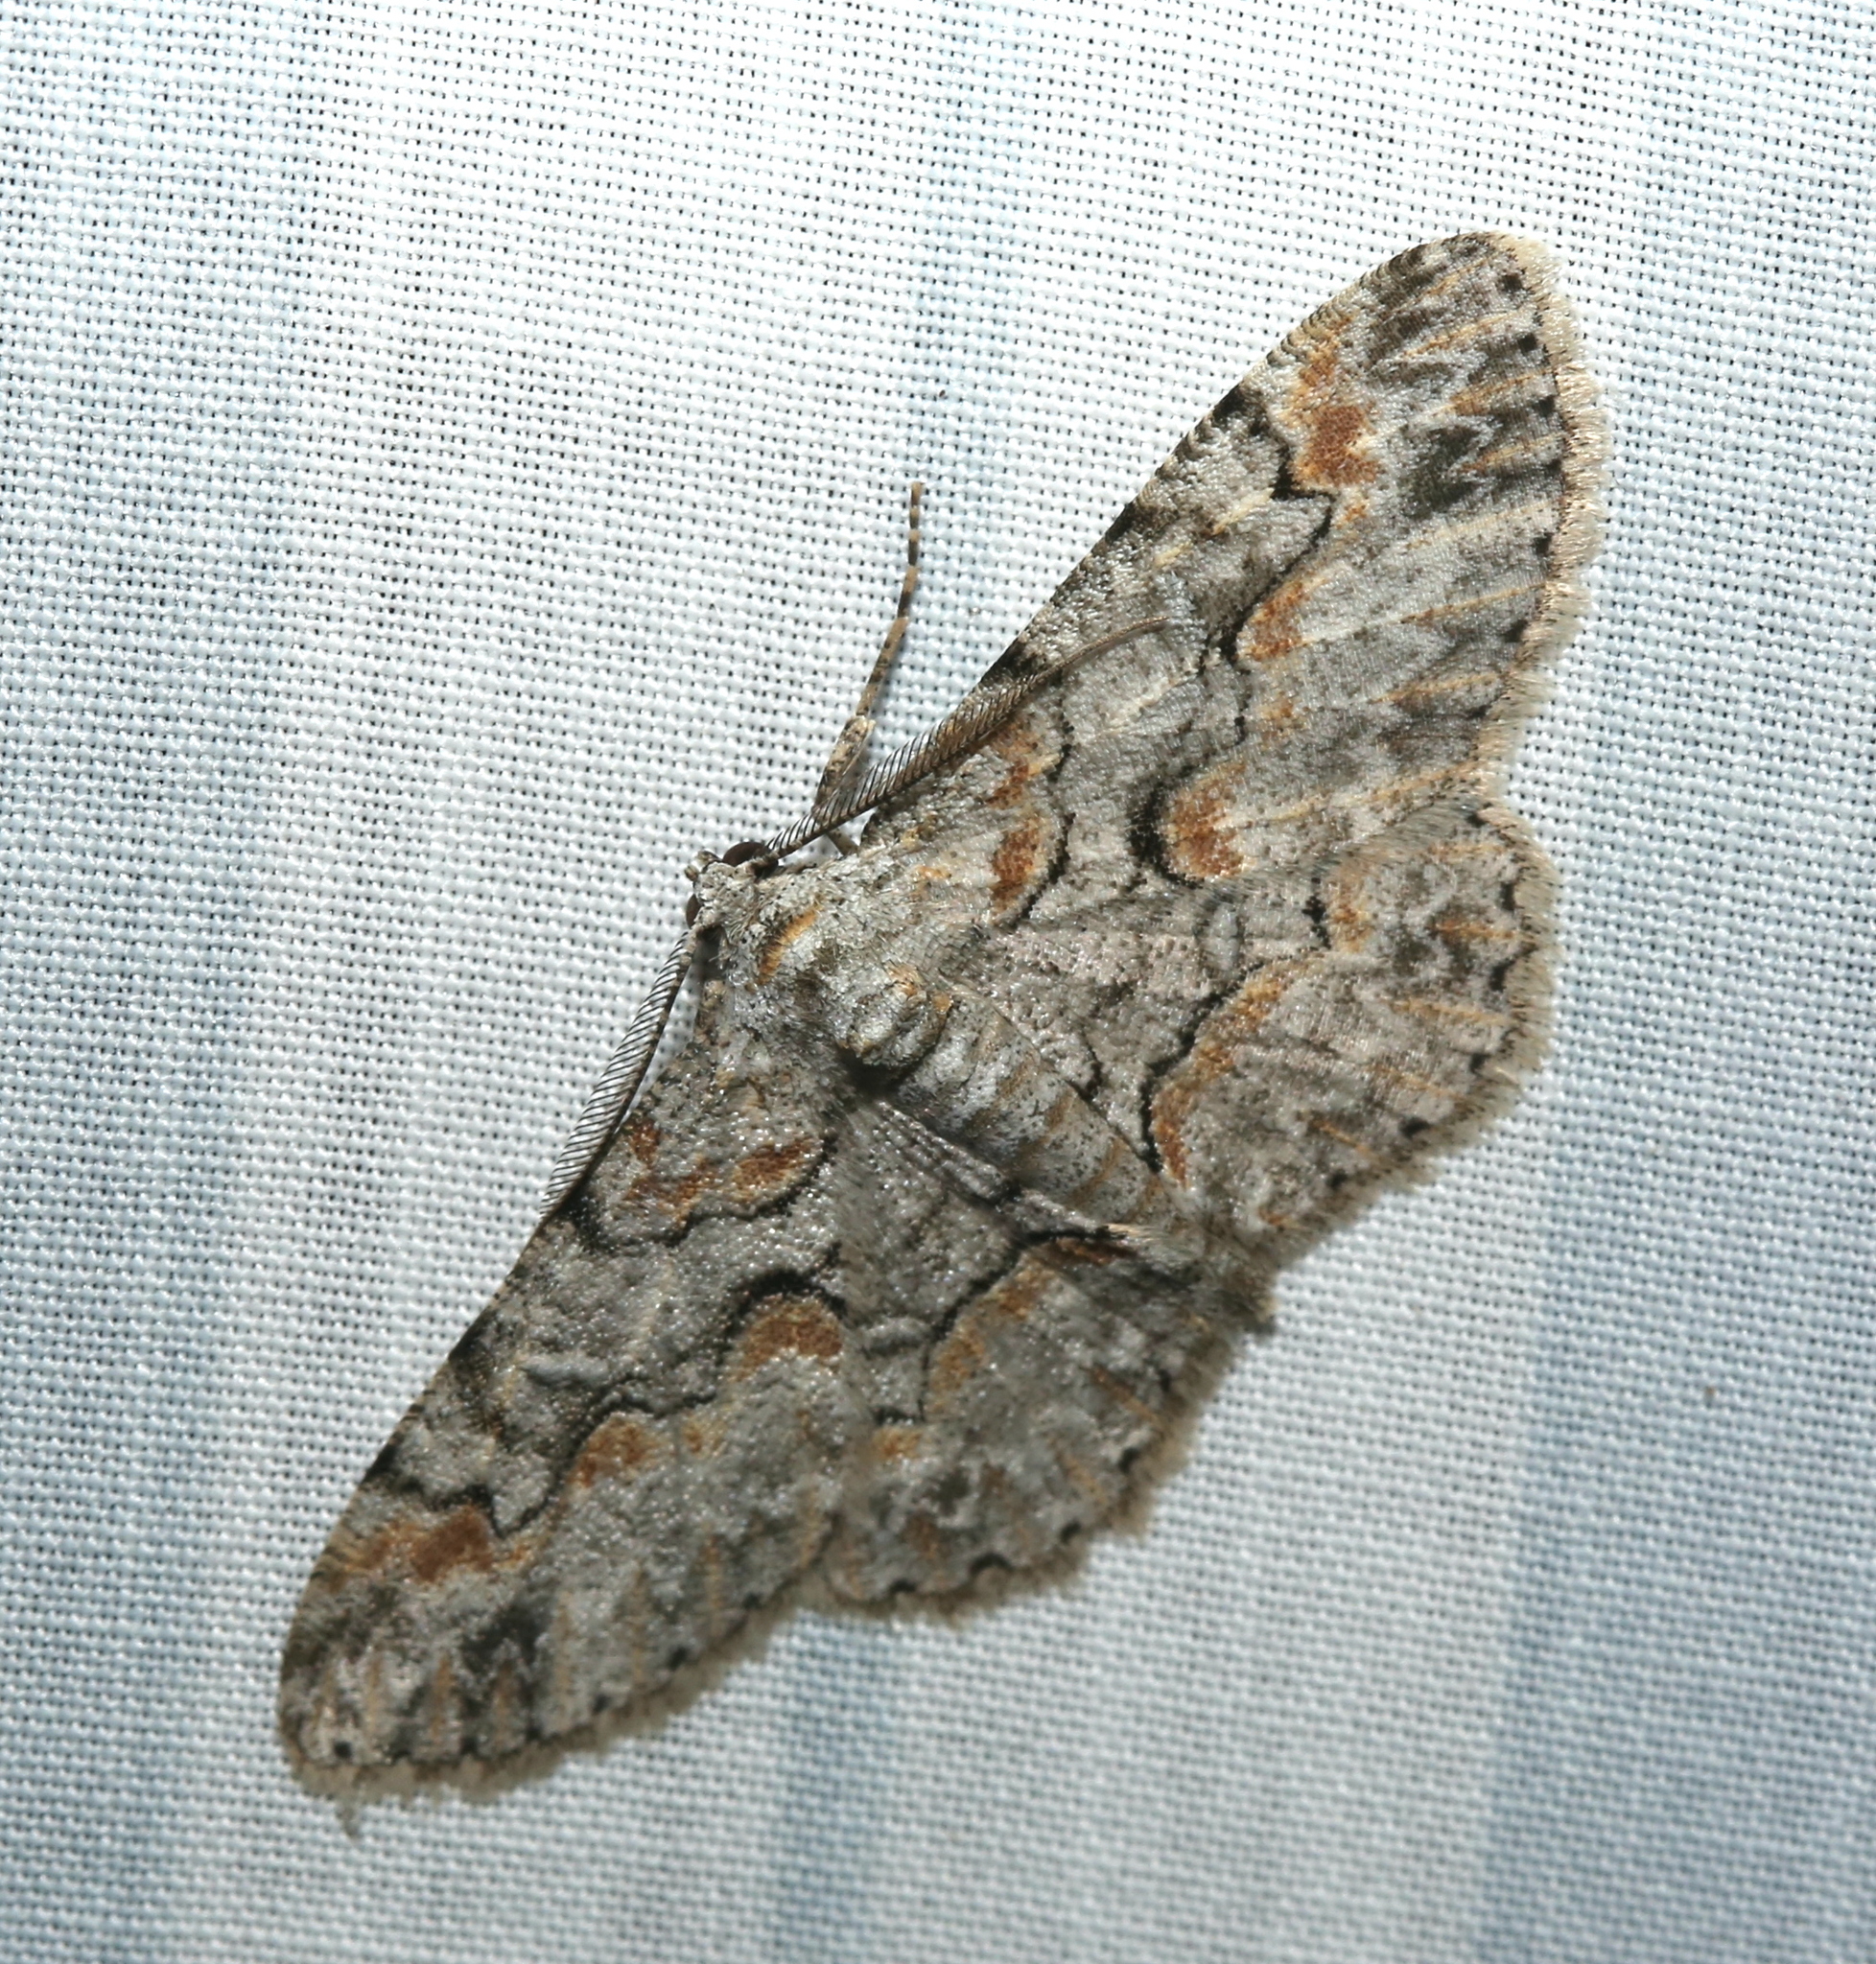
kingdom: Animalia
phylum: Arthropoda
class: Insecta
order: Lepidoptera
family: Geometridae
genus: Iridopsis
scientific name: Iridopsis defectaria
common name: Brown-shaded gray
